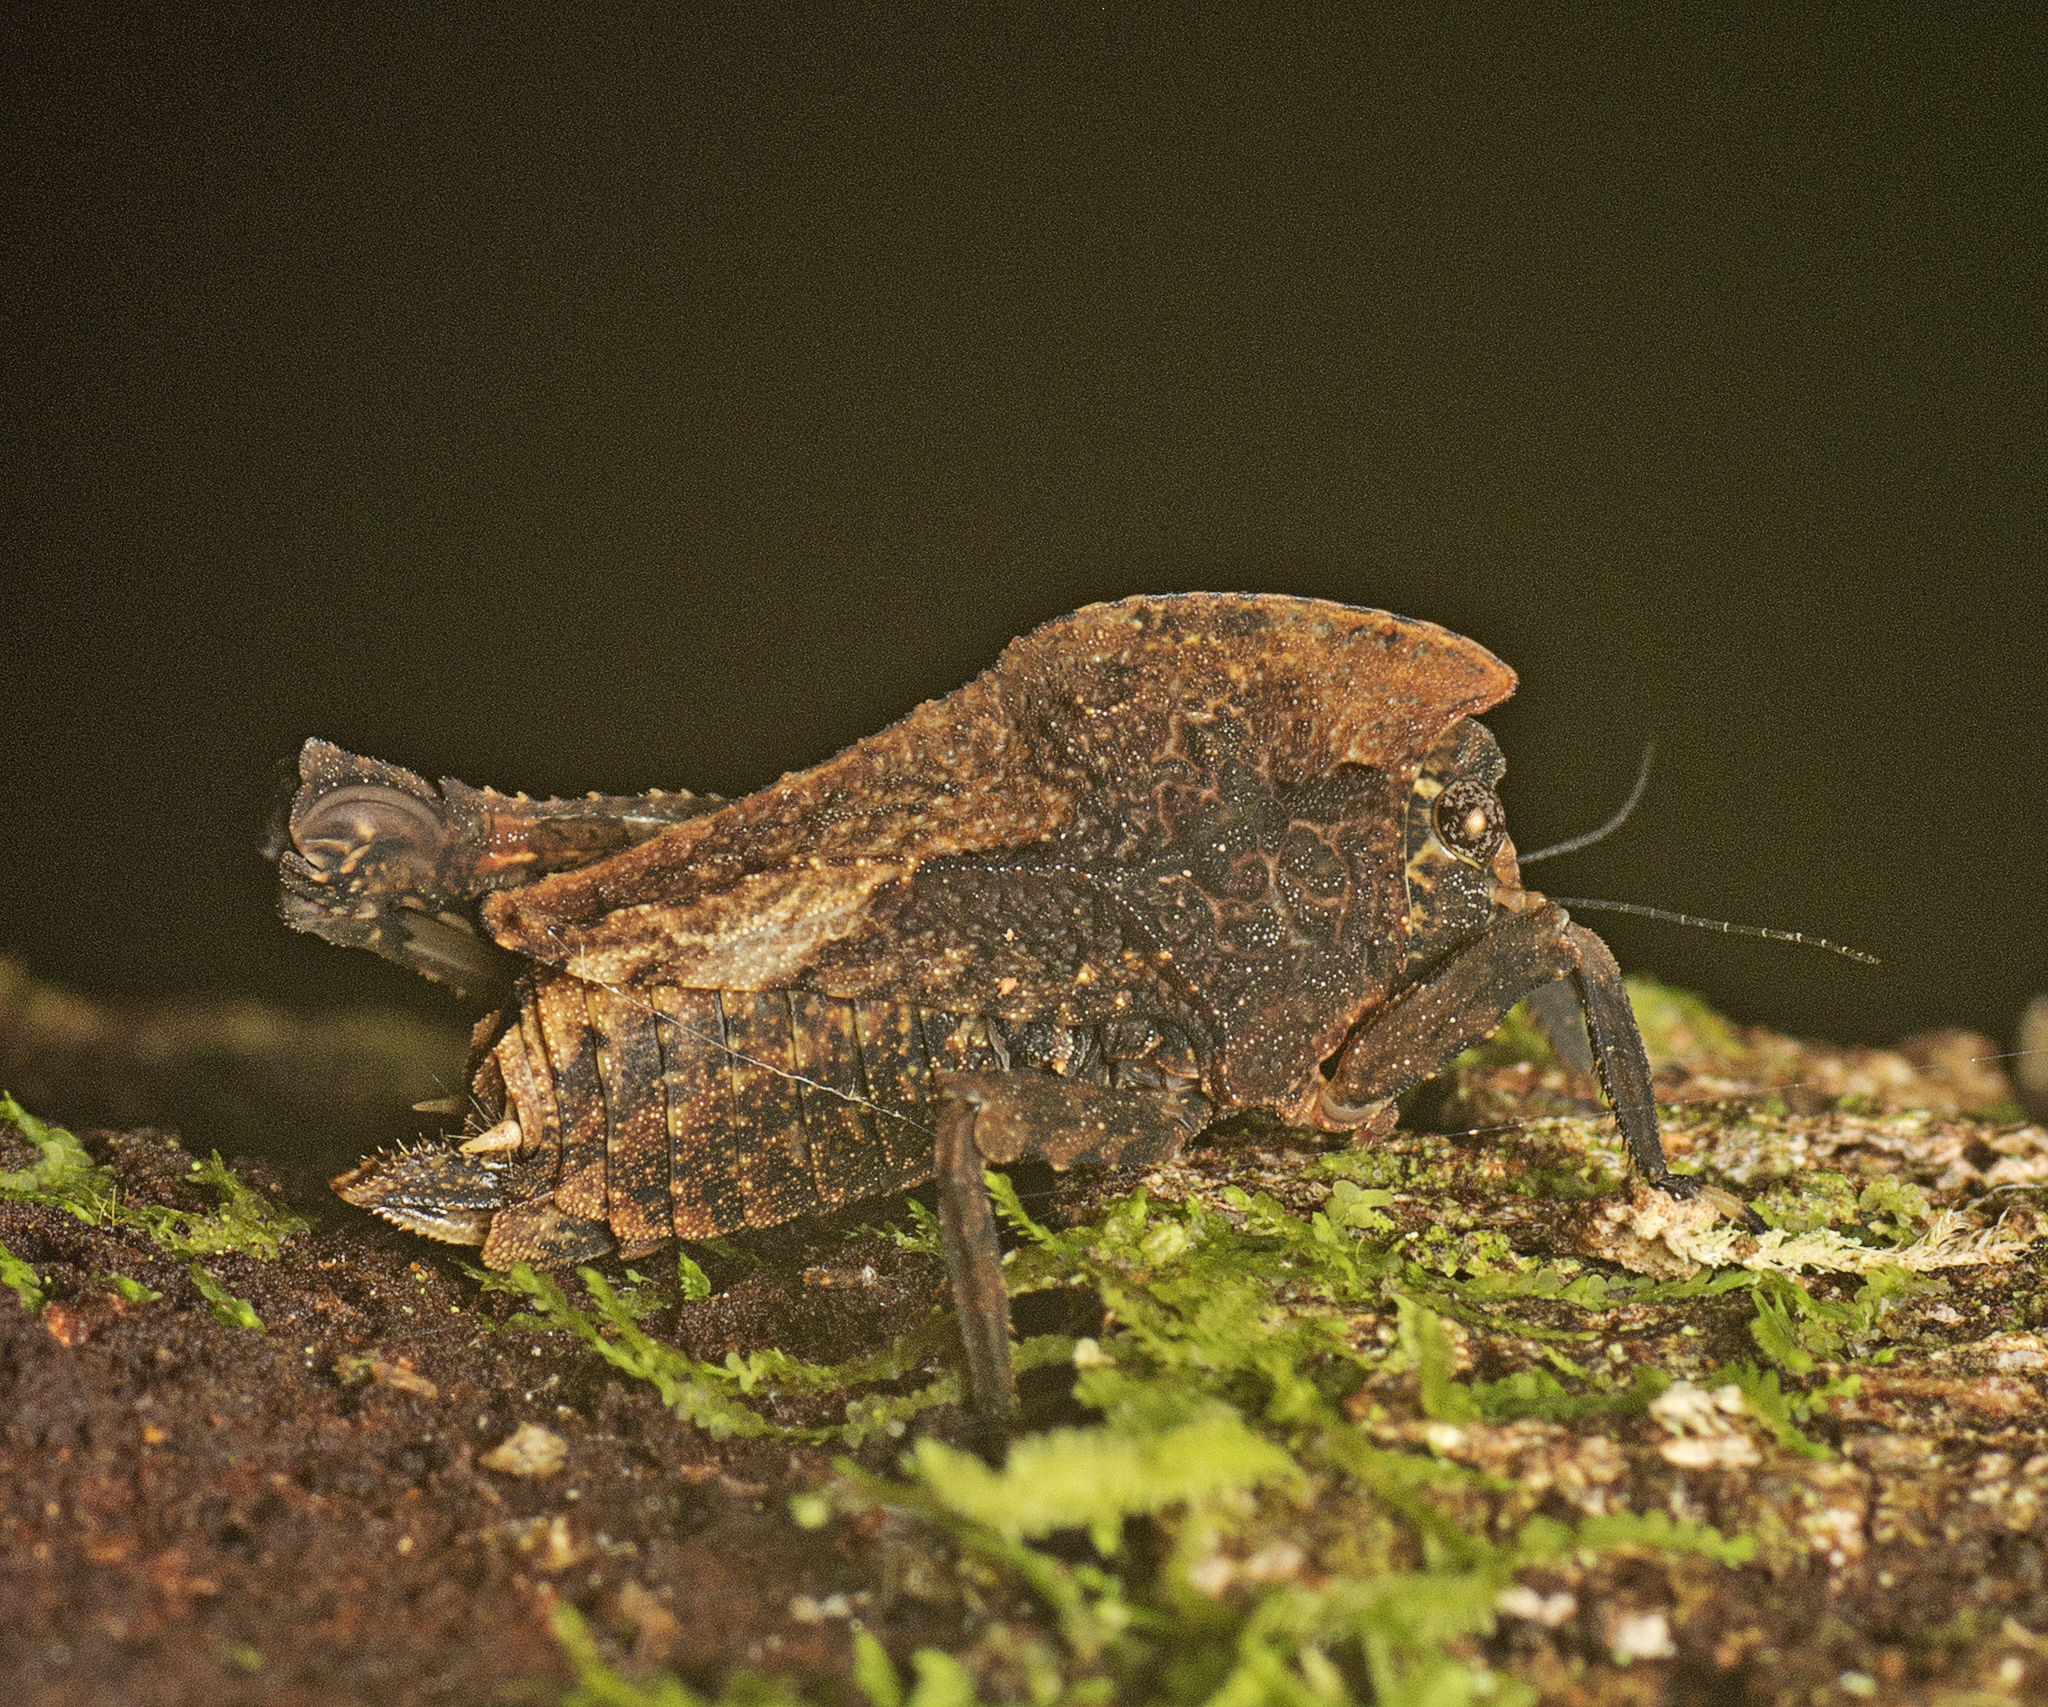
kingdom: Animalia
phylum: Arthropoda
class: Insecta
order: Orthoptera
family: Tetrigidae
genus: Vingselina
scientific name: Vingselina crassa
